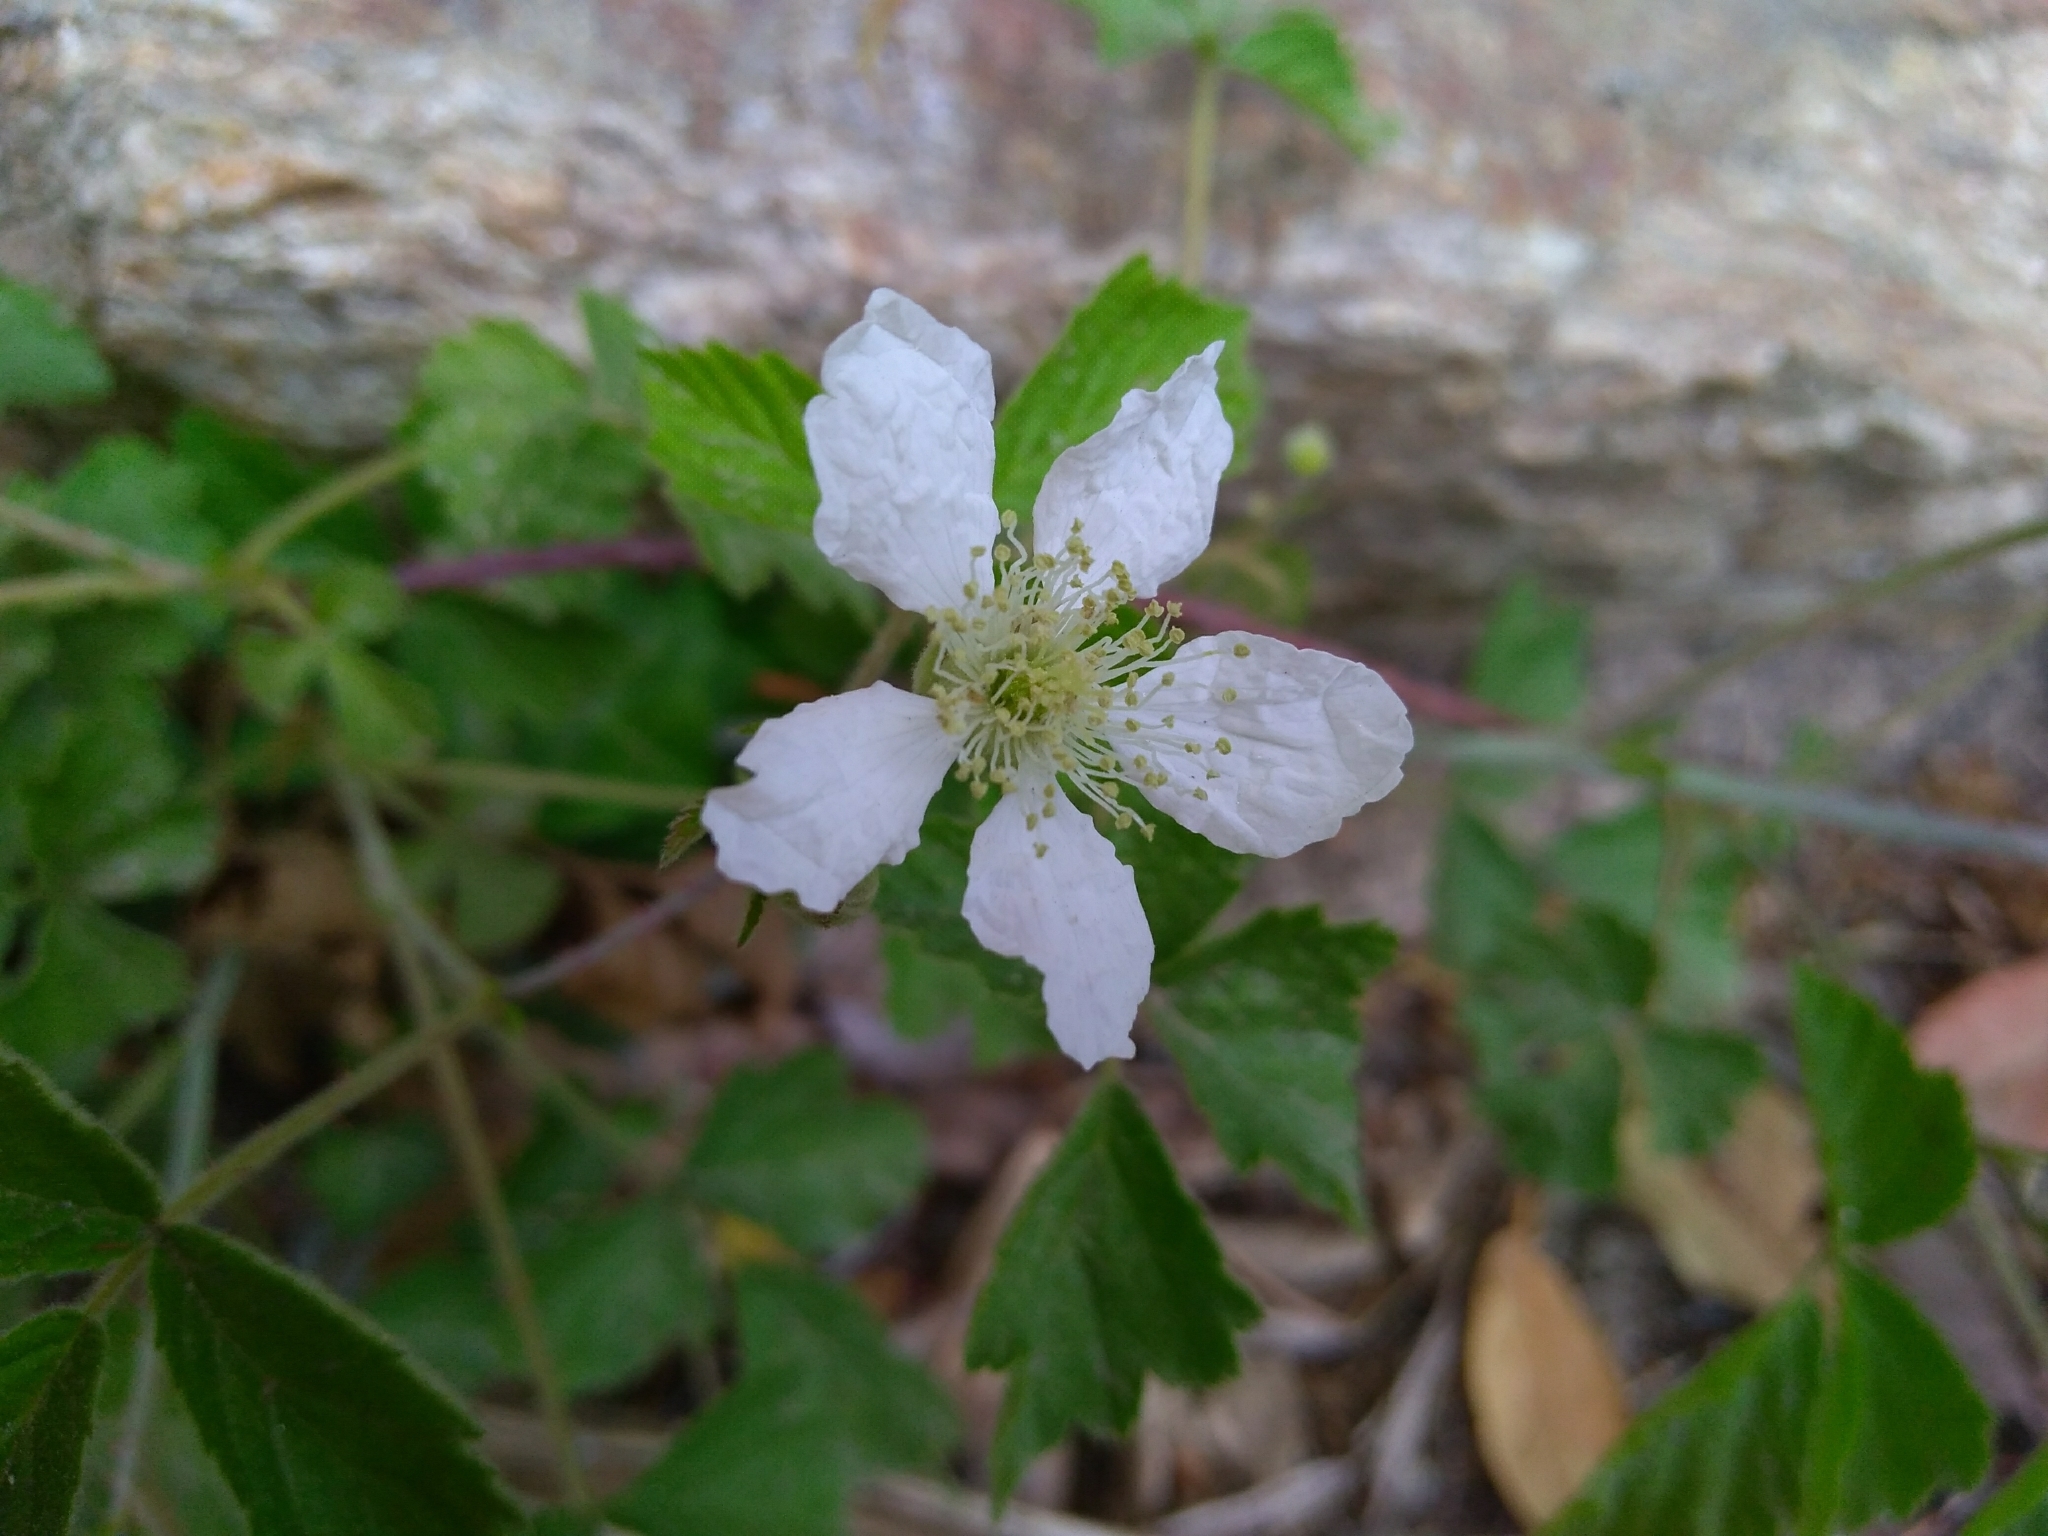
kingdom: Plantae
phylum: Tracheophyta
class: Magnoliopsida
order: Rosales
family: Rosaceae
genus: Rubus
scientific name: Rubus caesius
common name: Dewberry
